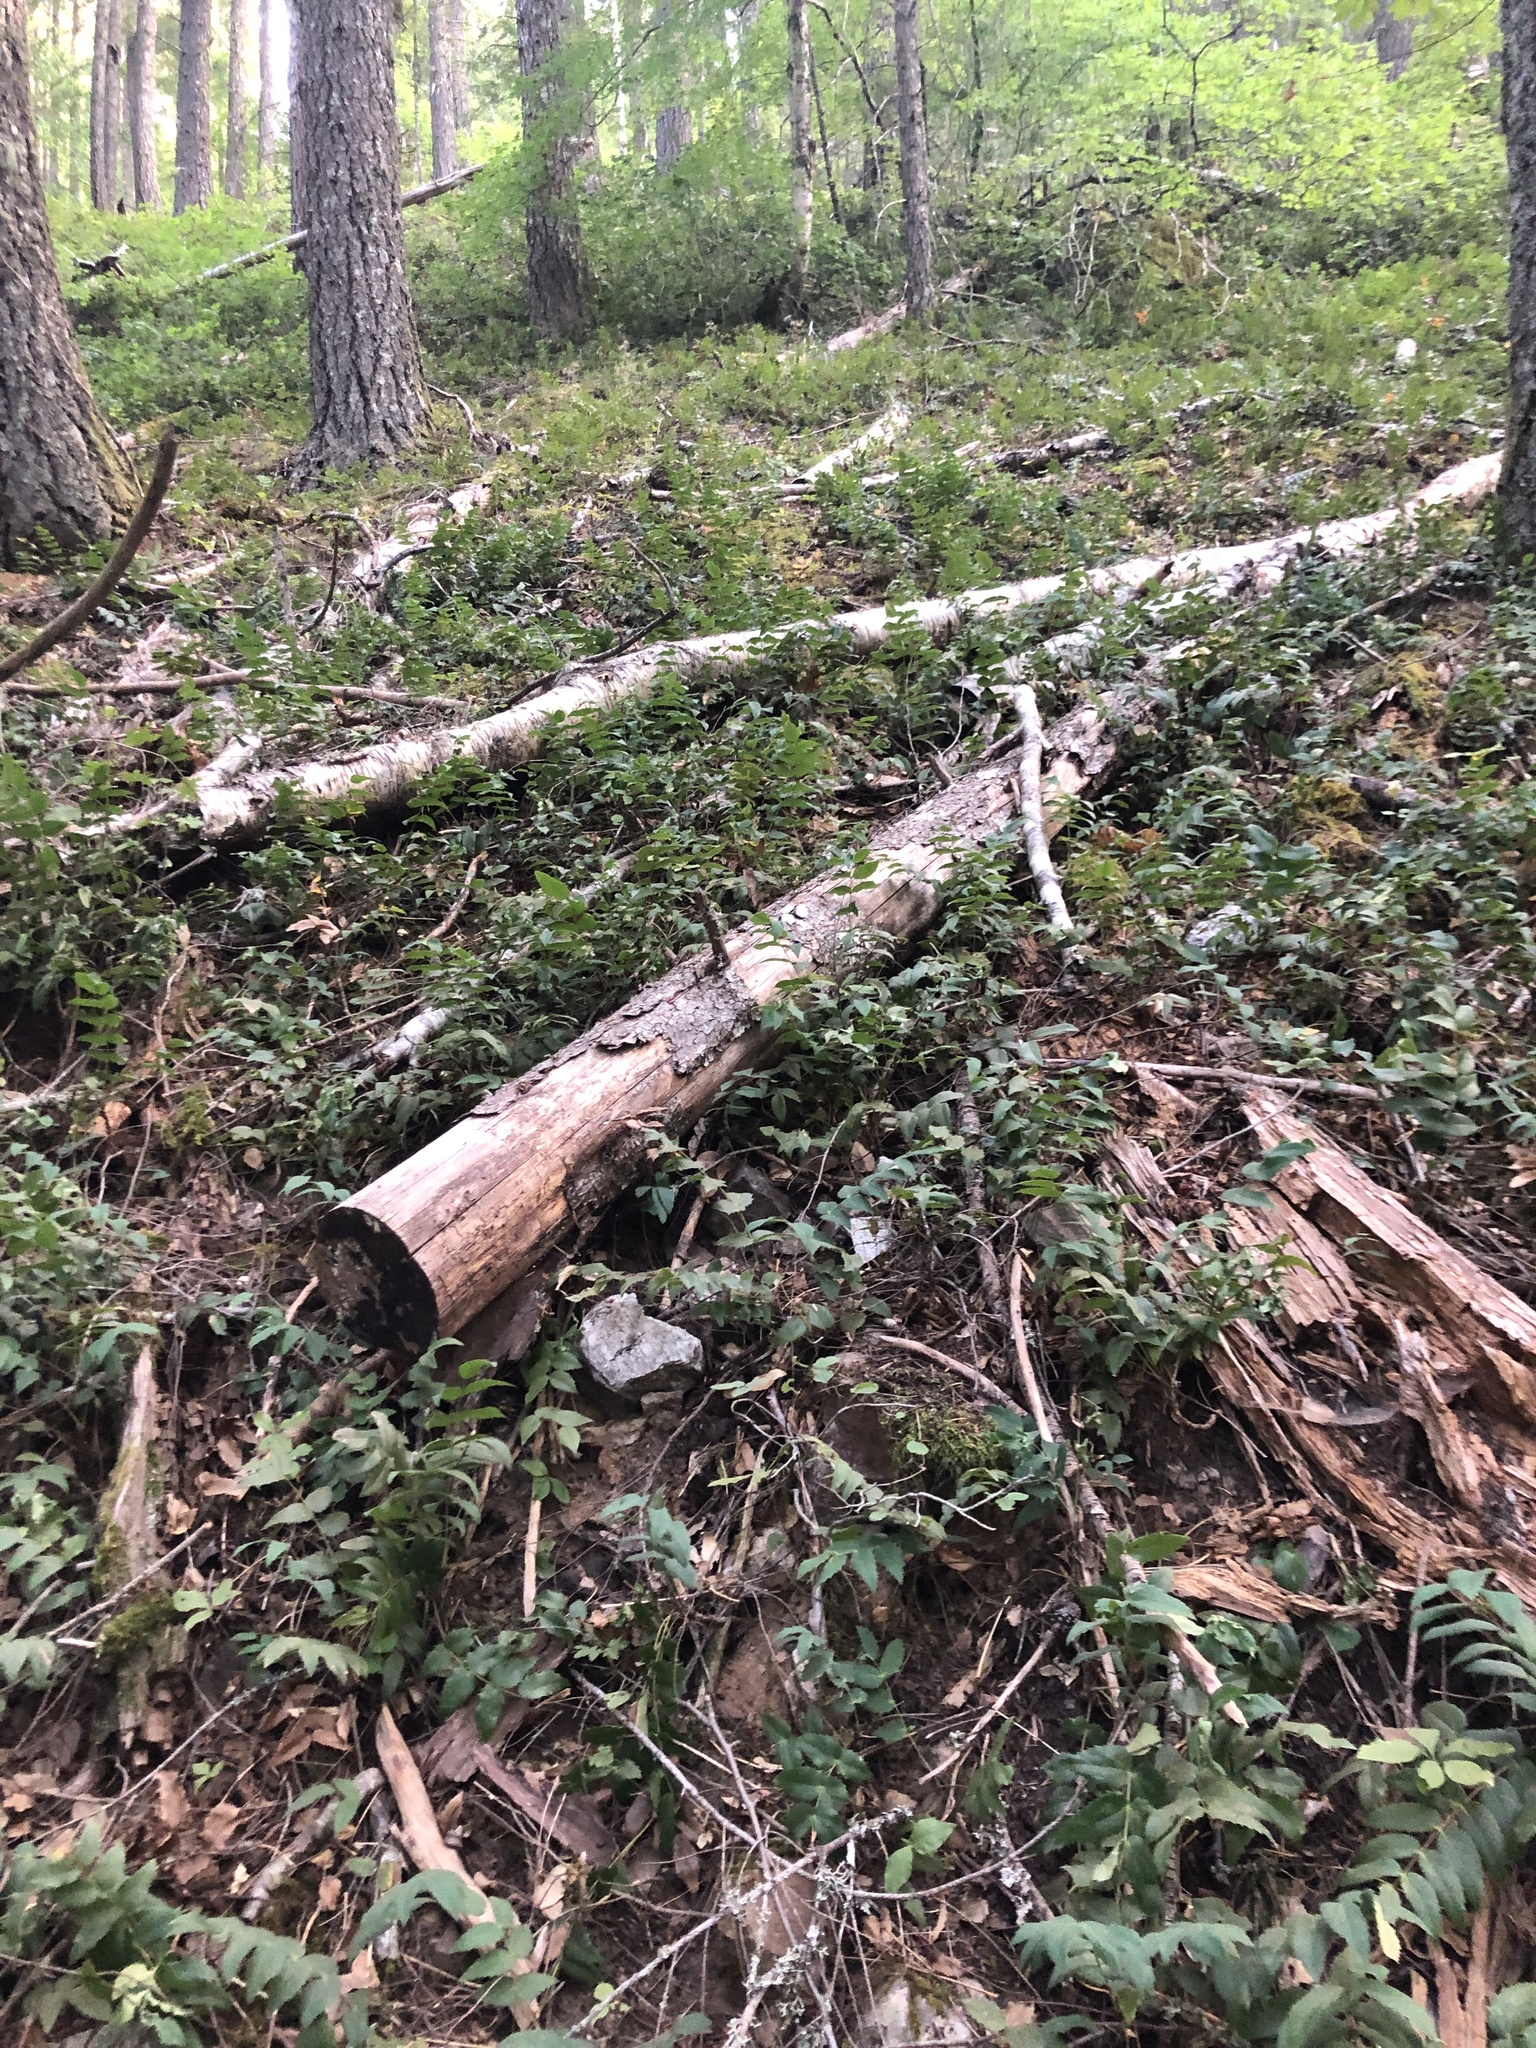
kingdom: Plantae
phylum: Tracheophyta
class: Magnoliopsida
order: Ranunculales
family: Berberidaceae
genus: Mahonia
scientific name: Mahonia nervosa
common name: Cascade oregon-grape
